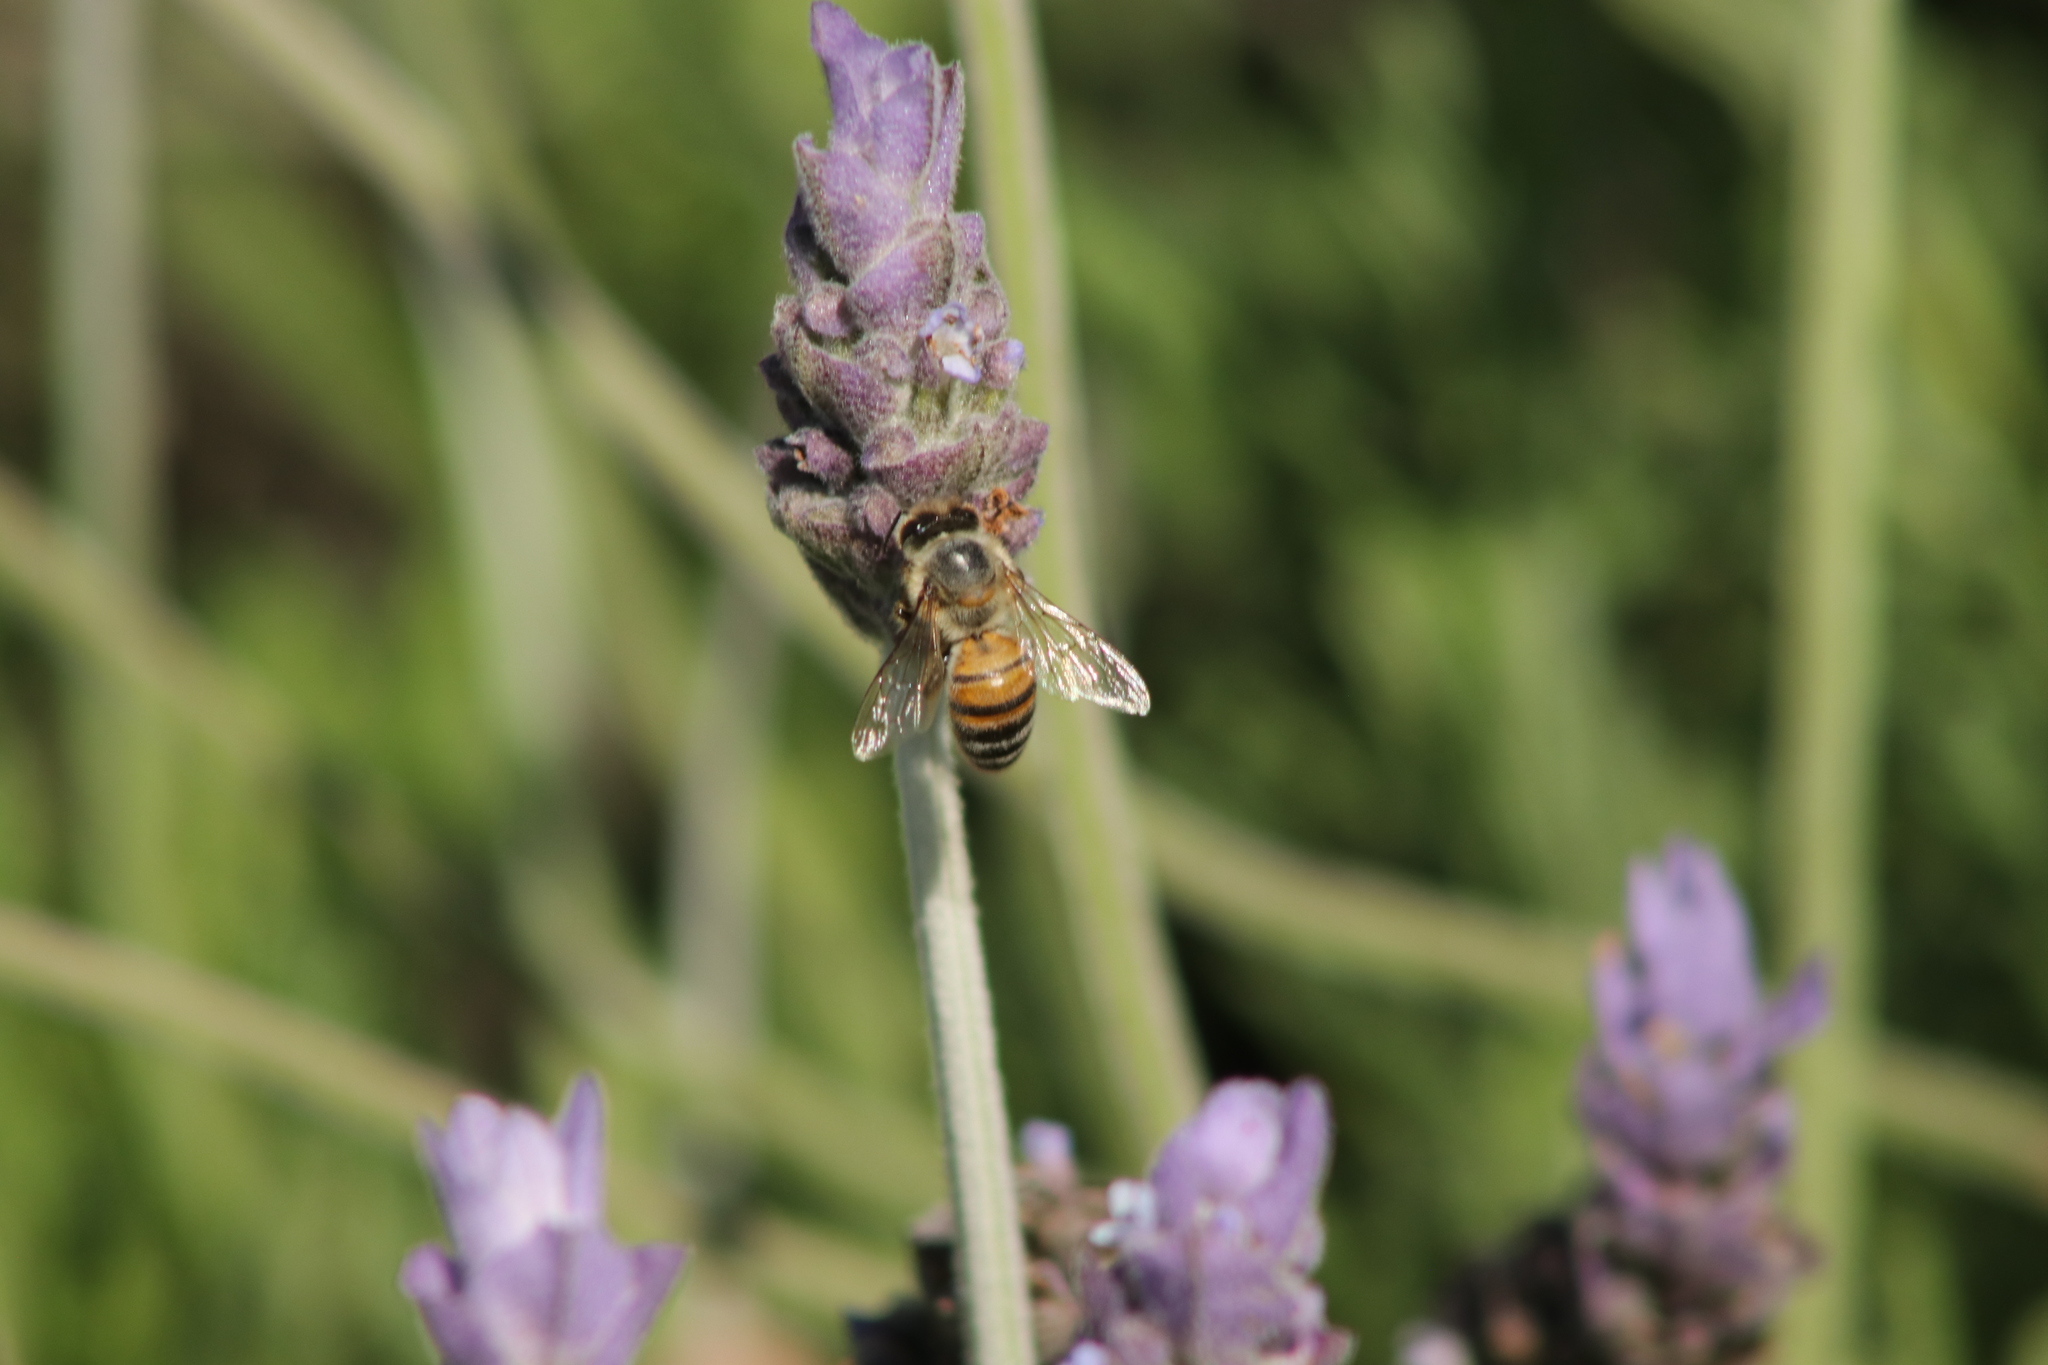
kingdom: Animalia
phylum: Arthropoda
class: Insecta
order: Hymenoptera
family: Apidae
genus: Apis
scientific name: Apis mellifera
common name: Honey bee
